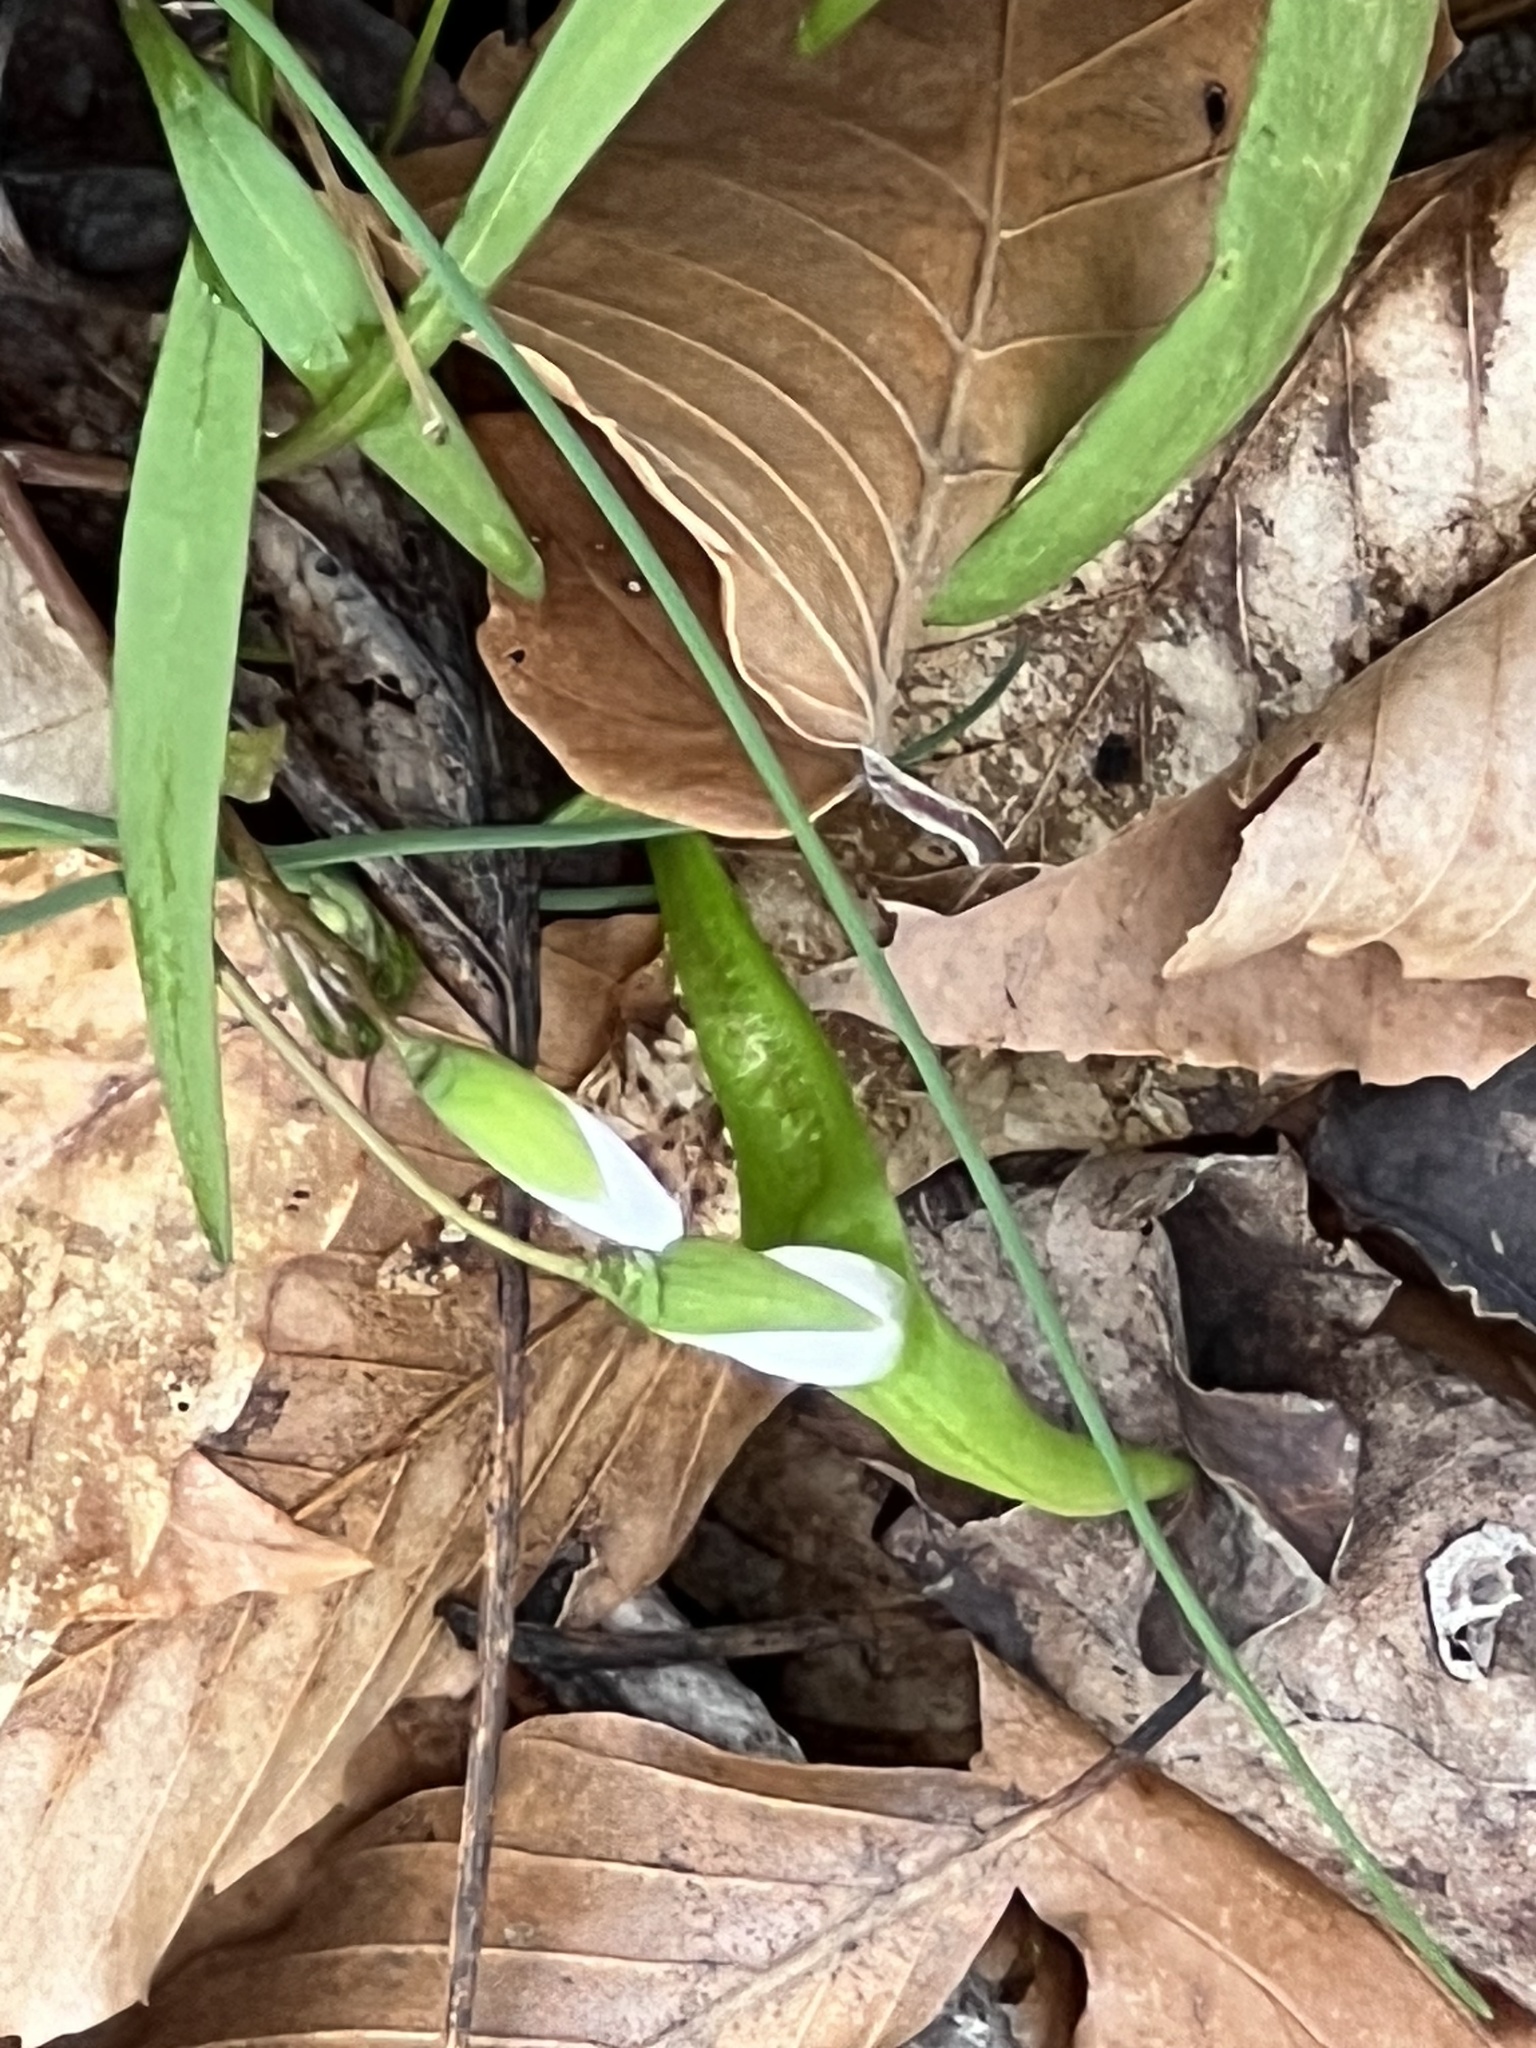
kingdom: Plantae
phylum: Tracheophyta
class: Magnoliopsida
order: Caryophyllales
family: Montiaceae
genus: Claytonia
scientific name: Claytonia virginica
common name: Virginia springbeauty
